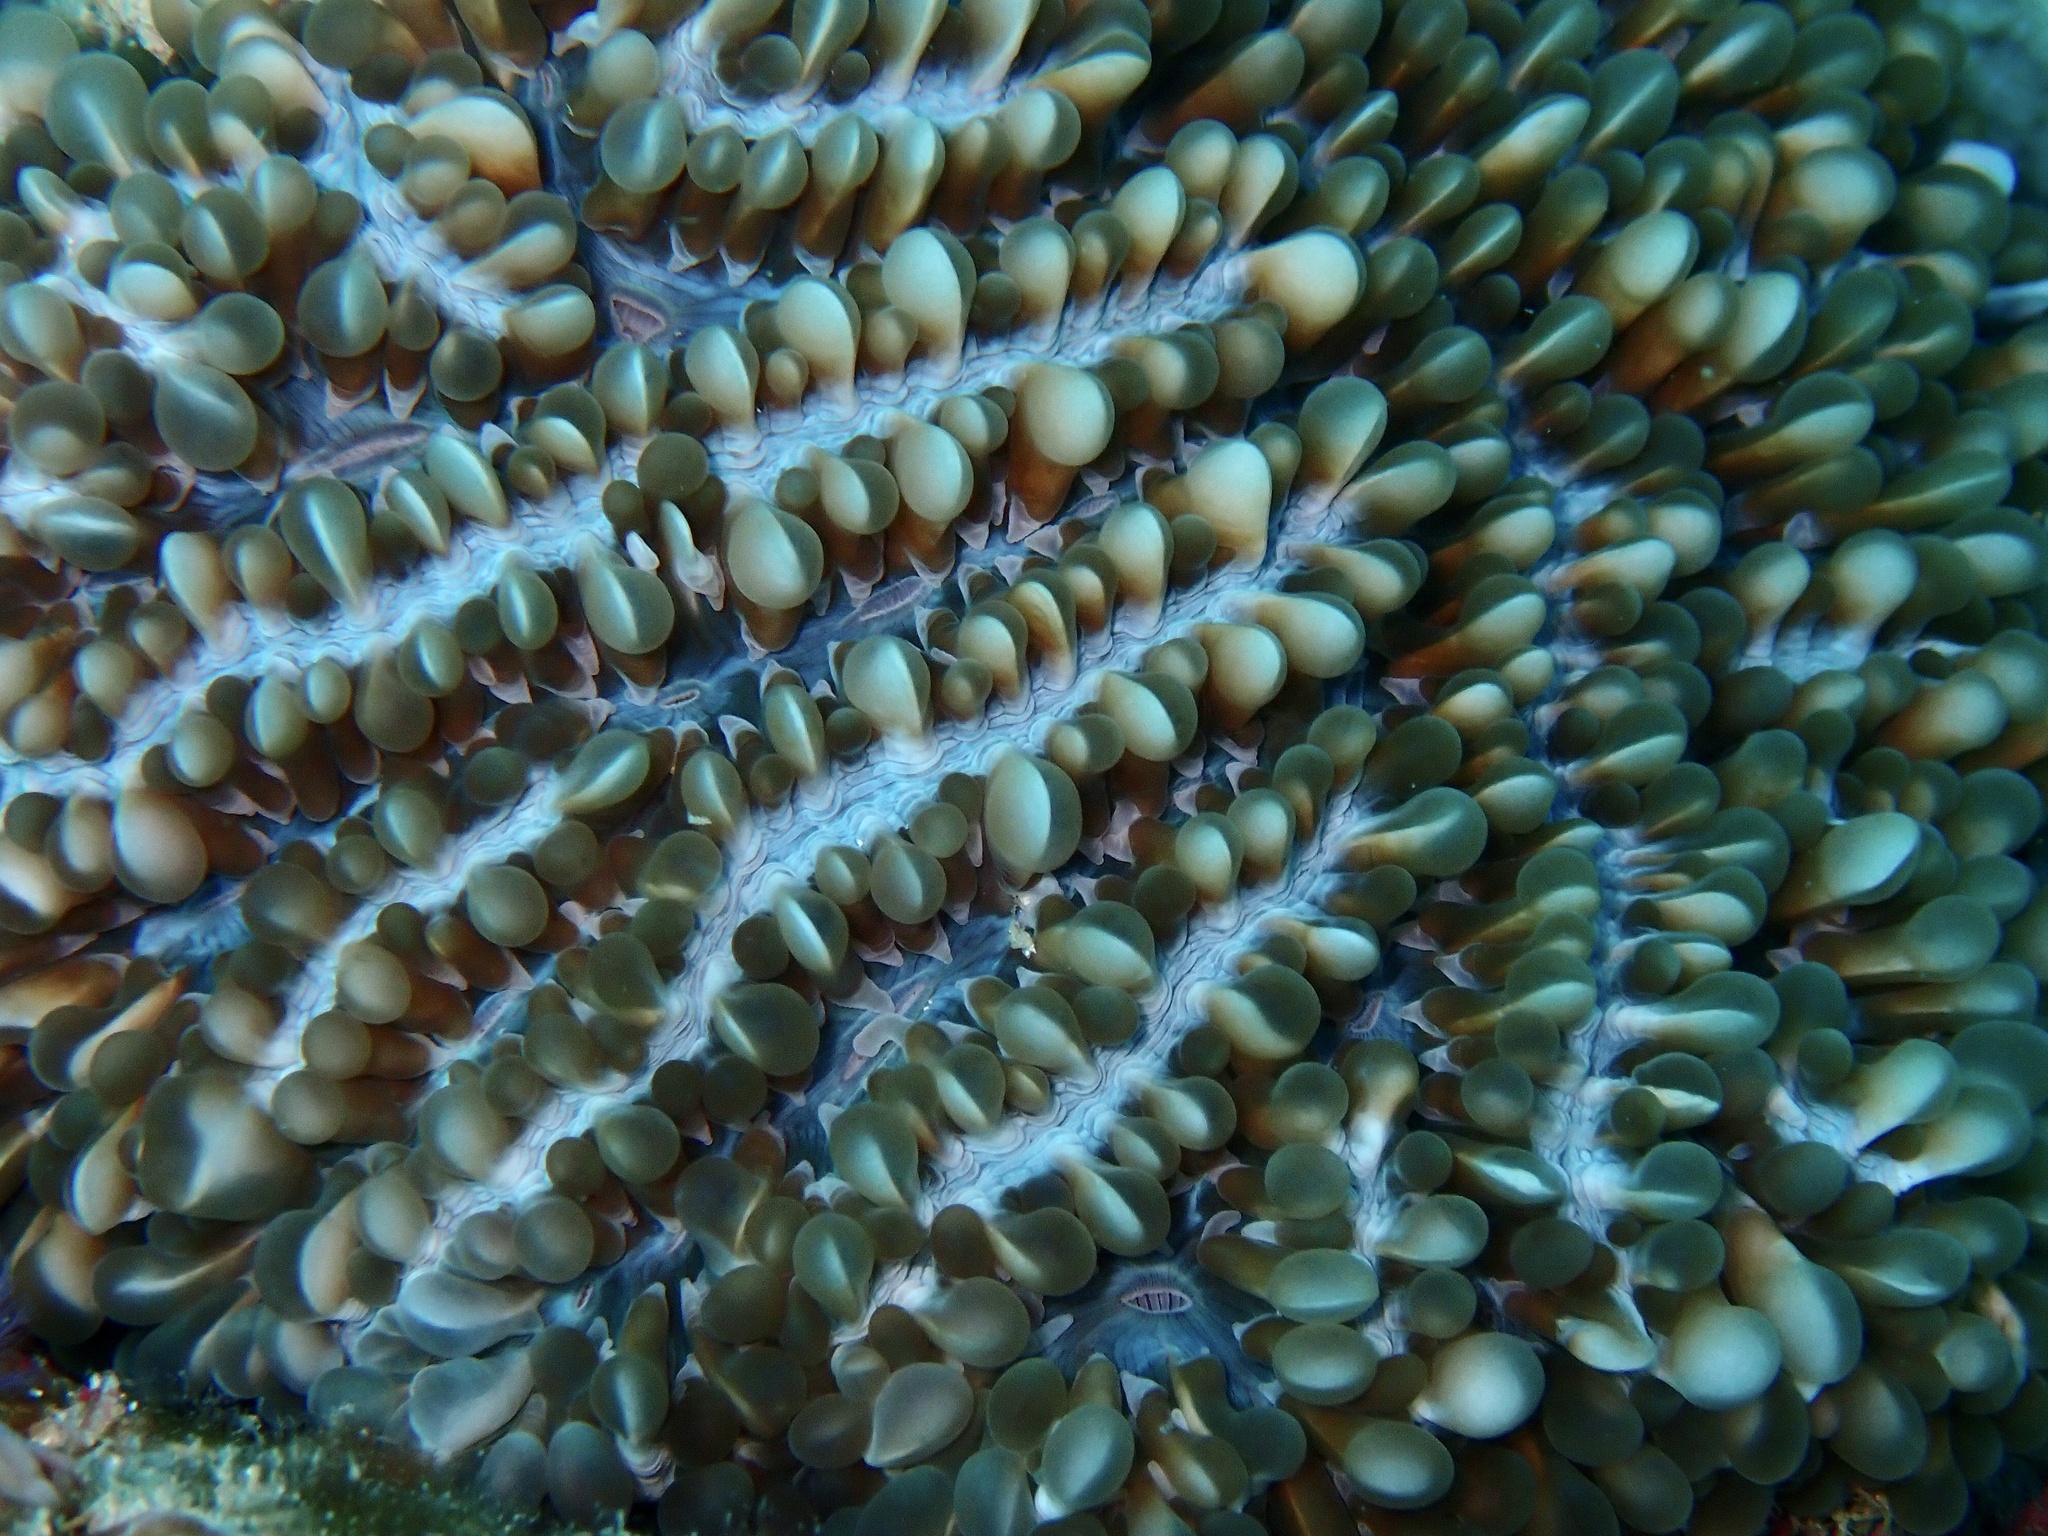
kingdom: Animalia
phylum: Cnidaria
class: Anthozoa
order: Scleractinia
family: Plerogyridae
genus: Physogyra
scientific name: Physogyra lichtensteini
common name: Tipped bubblegum coral
